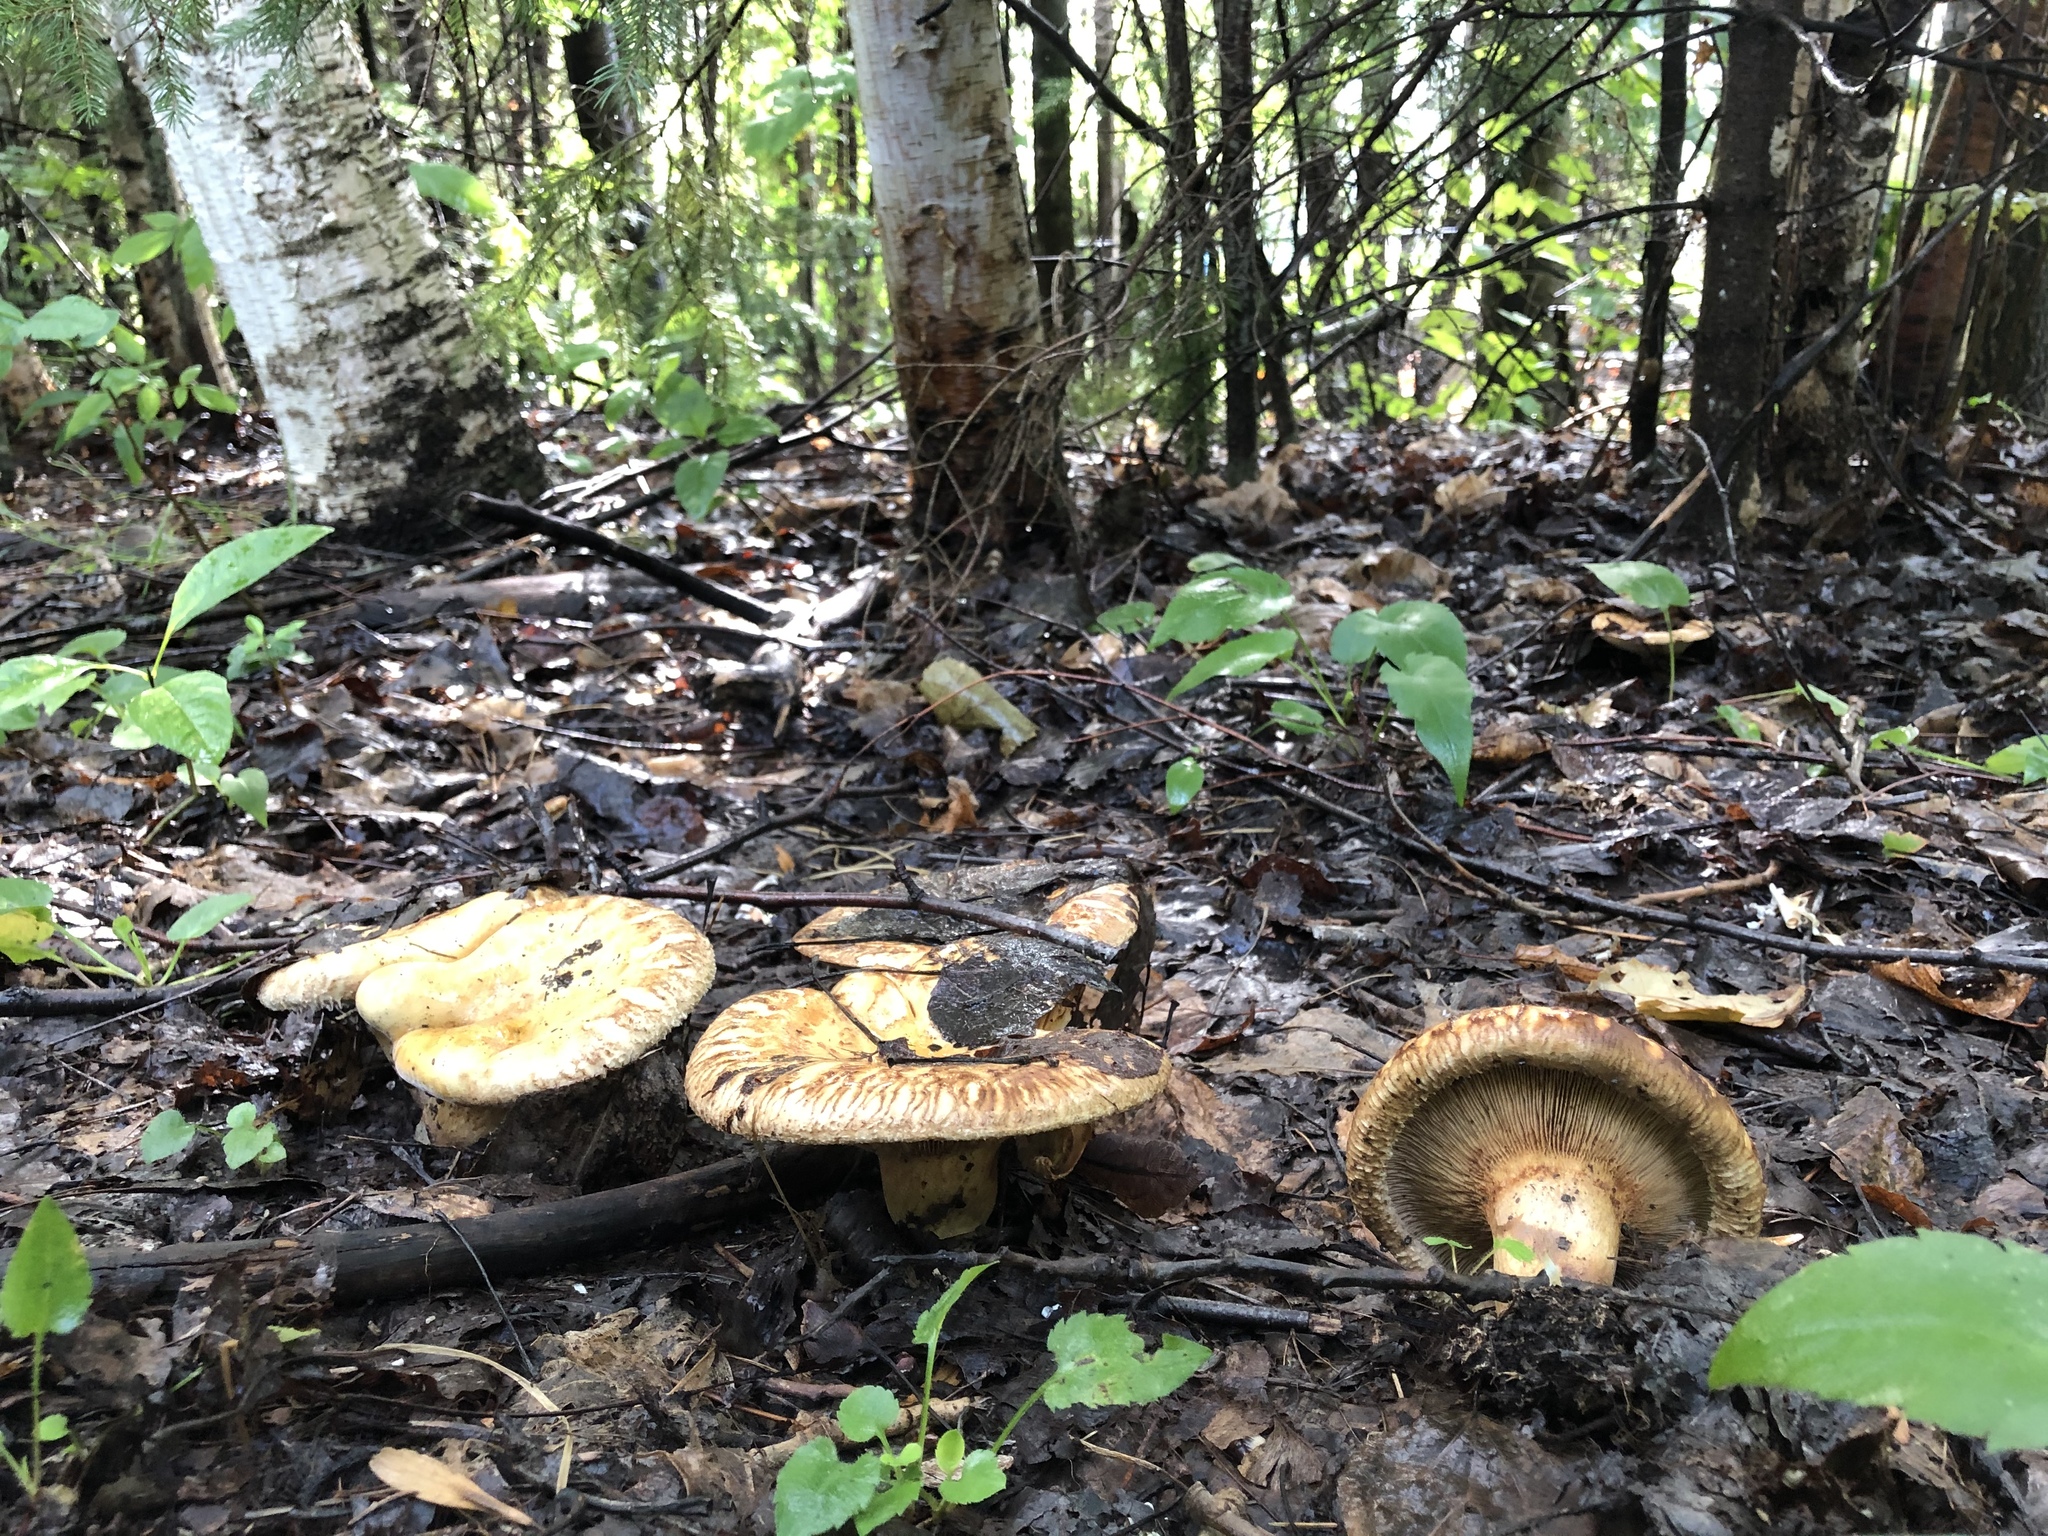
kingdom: Fungi
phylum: Basidiomycota
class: Agaricomycetes
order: Boletales
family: Paxillaceae
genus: Paxillus
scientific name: Paxillus involutus
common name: Brown roll rim
